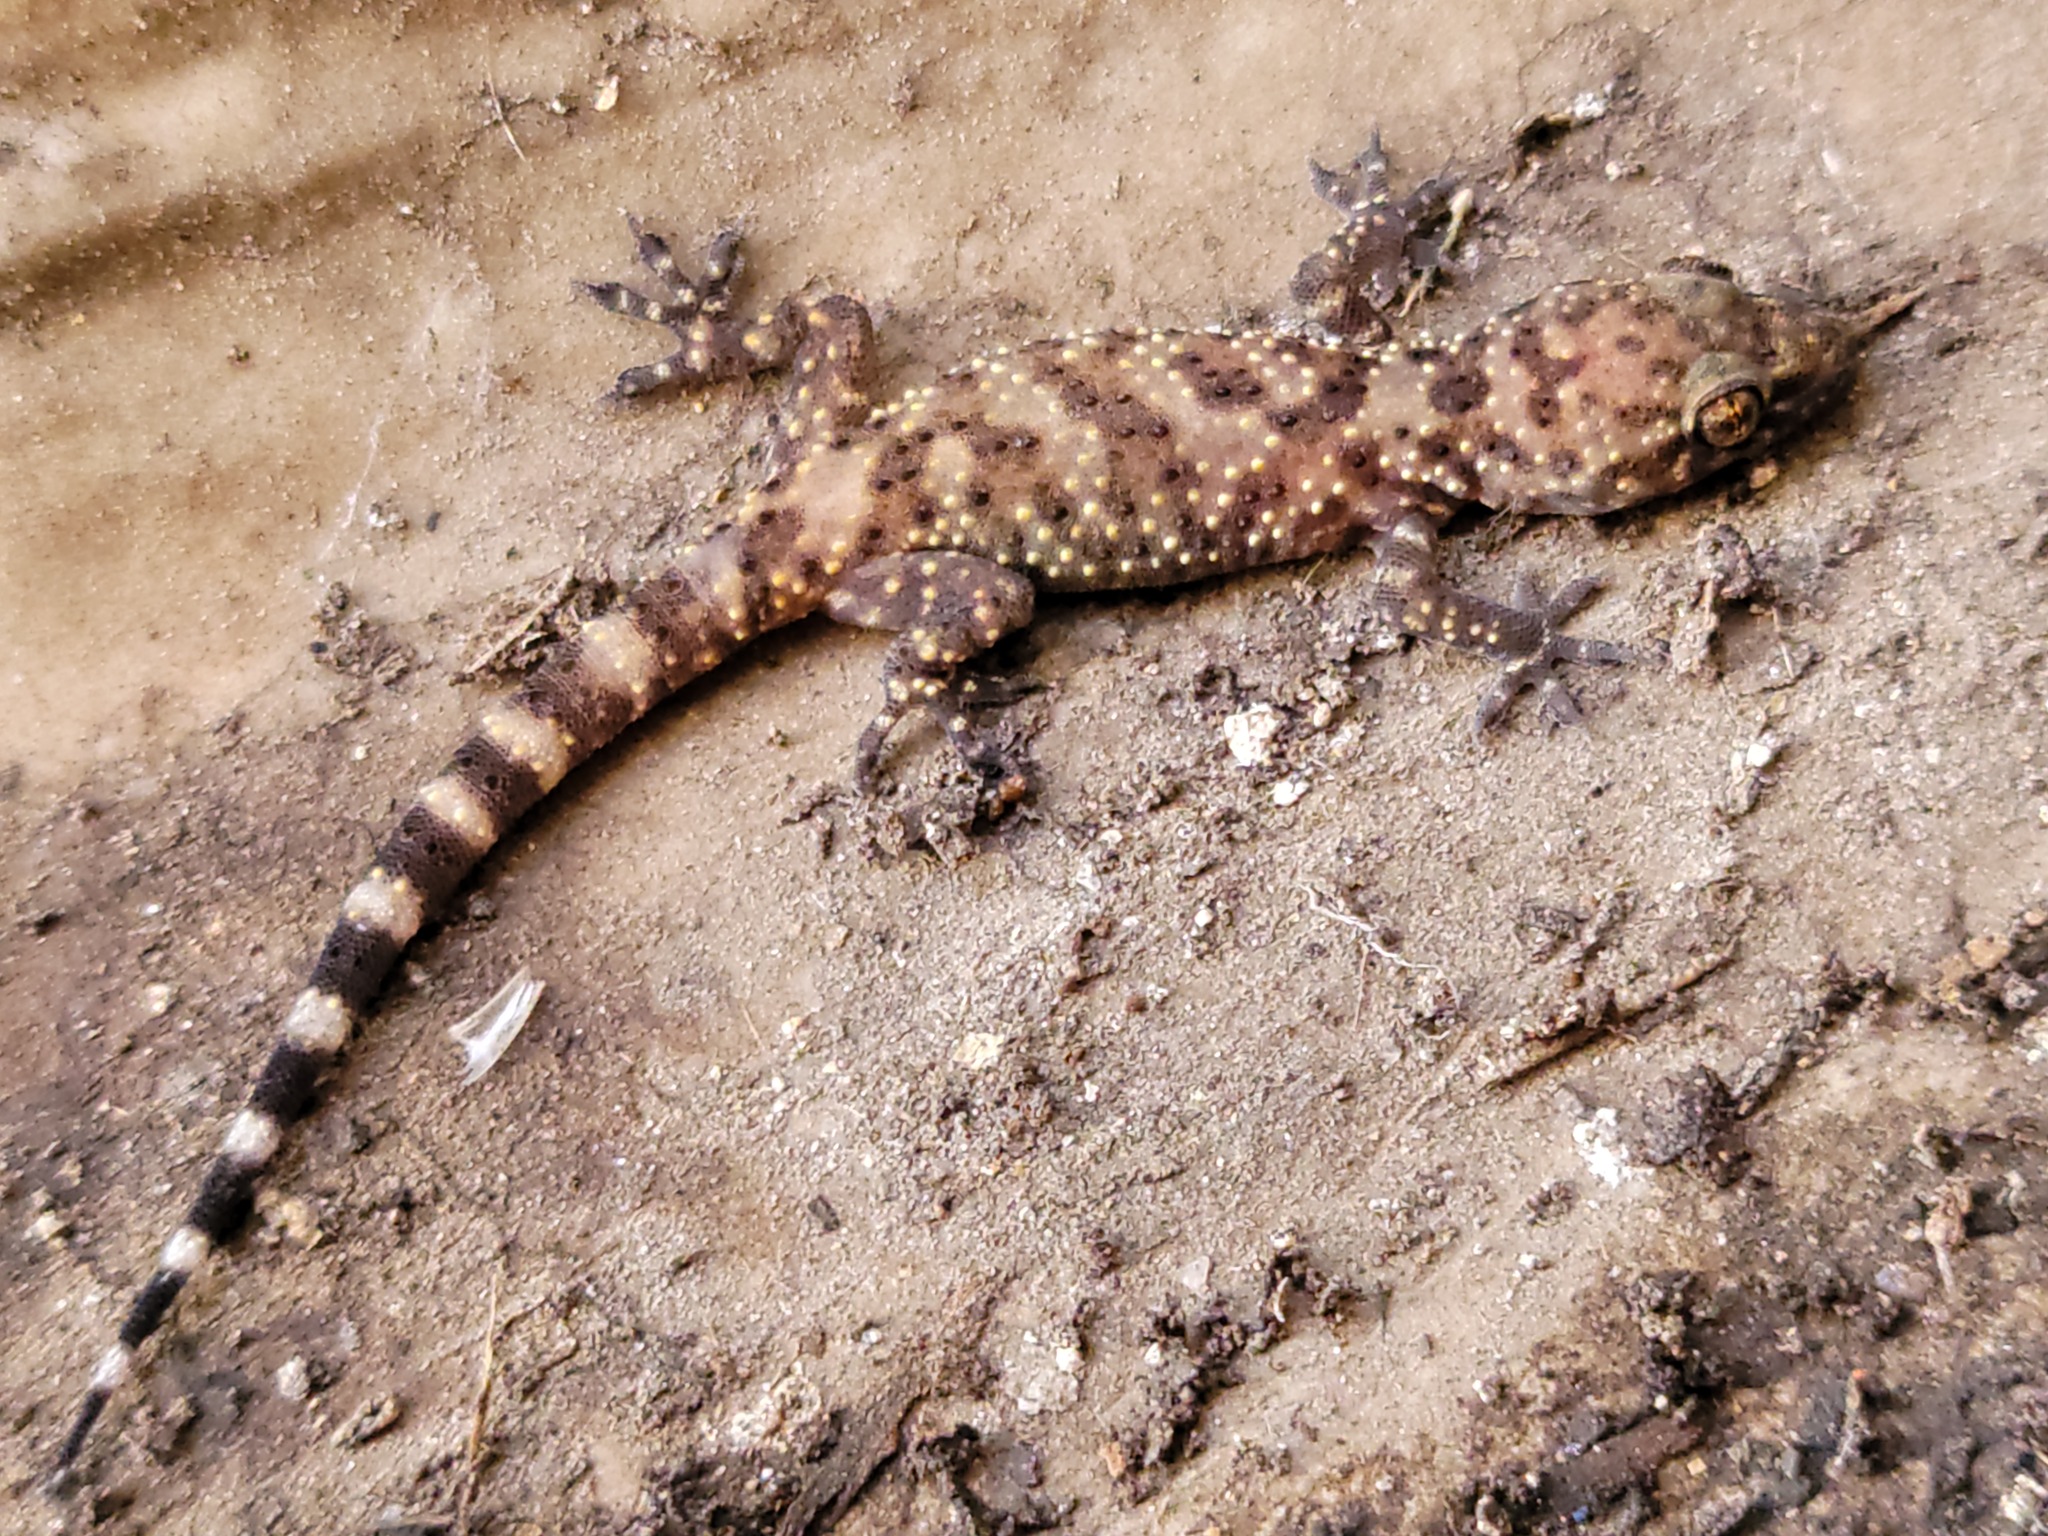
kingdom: Animalia
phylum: Chordata
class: Squamata
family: Gekkonidae
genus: Hemidactylus
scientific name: Hemidactylus turcicus
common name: Turkish gecko
